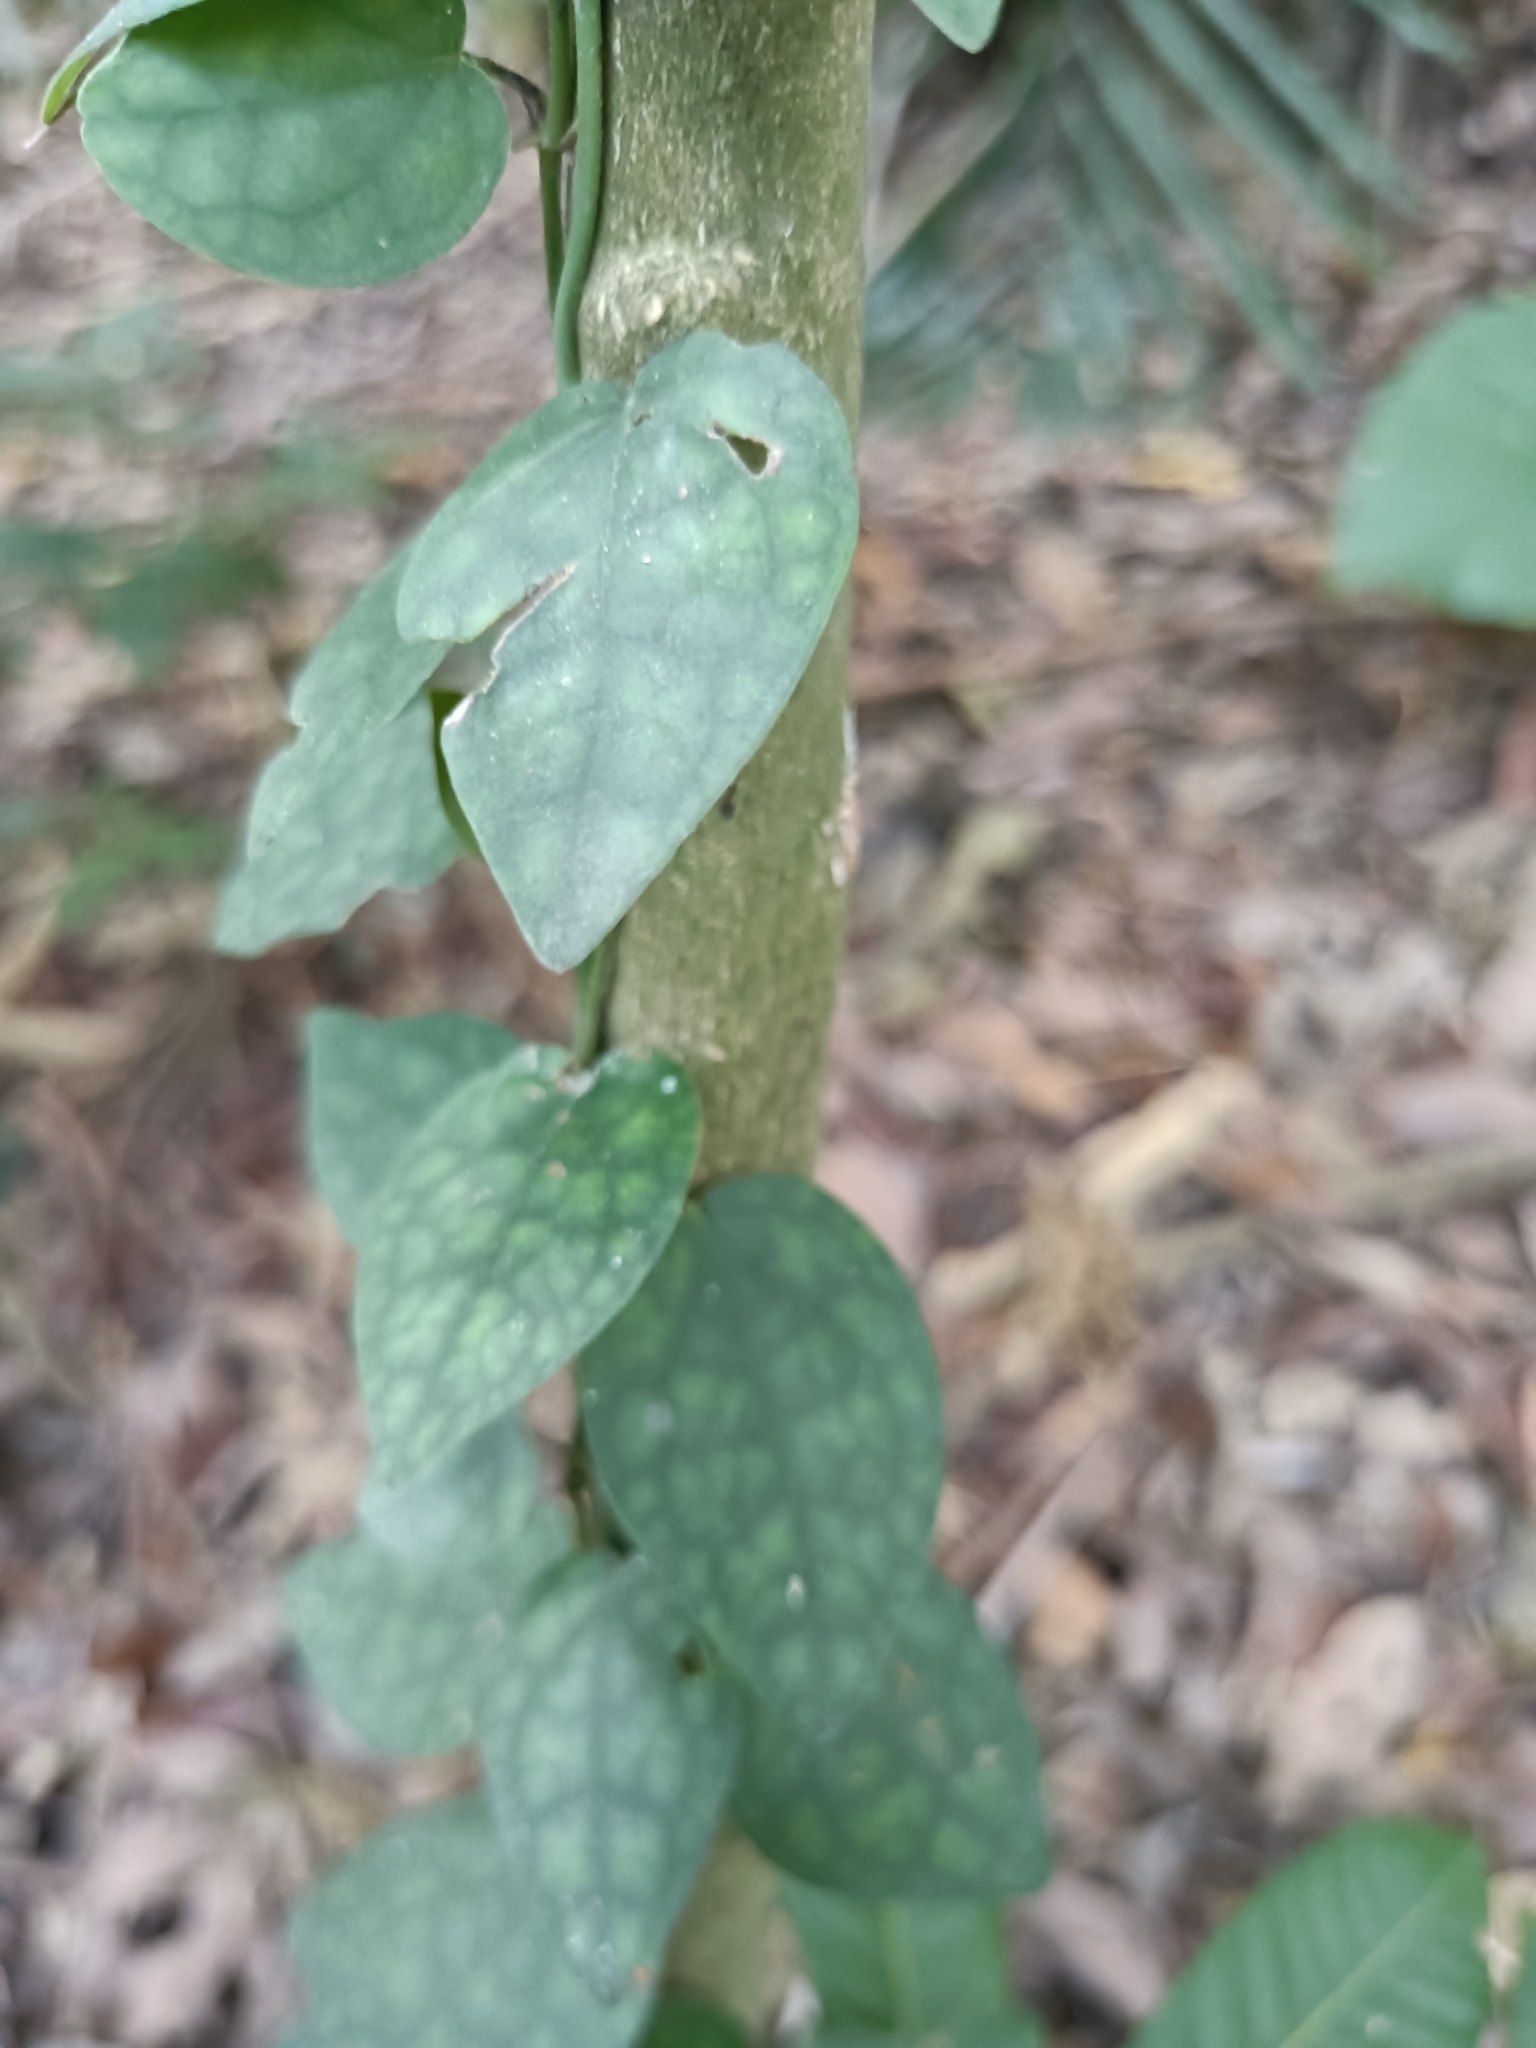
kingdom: Plantae
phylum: Tracheophyta
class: Magnoliopsida
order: Piperales
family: Piperaceae
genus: Piper
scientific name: Piper kadsura
